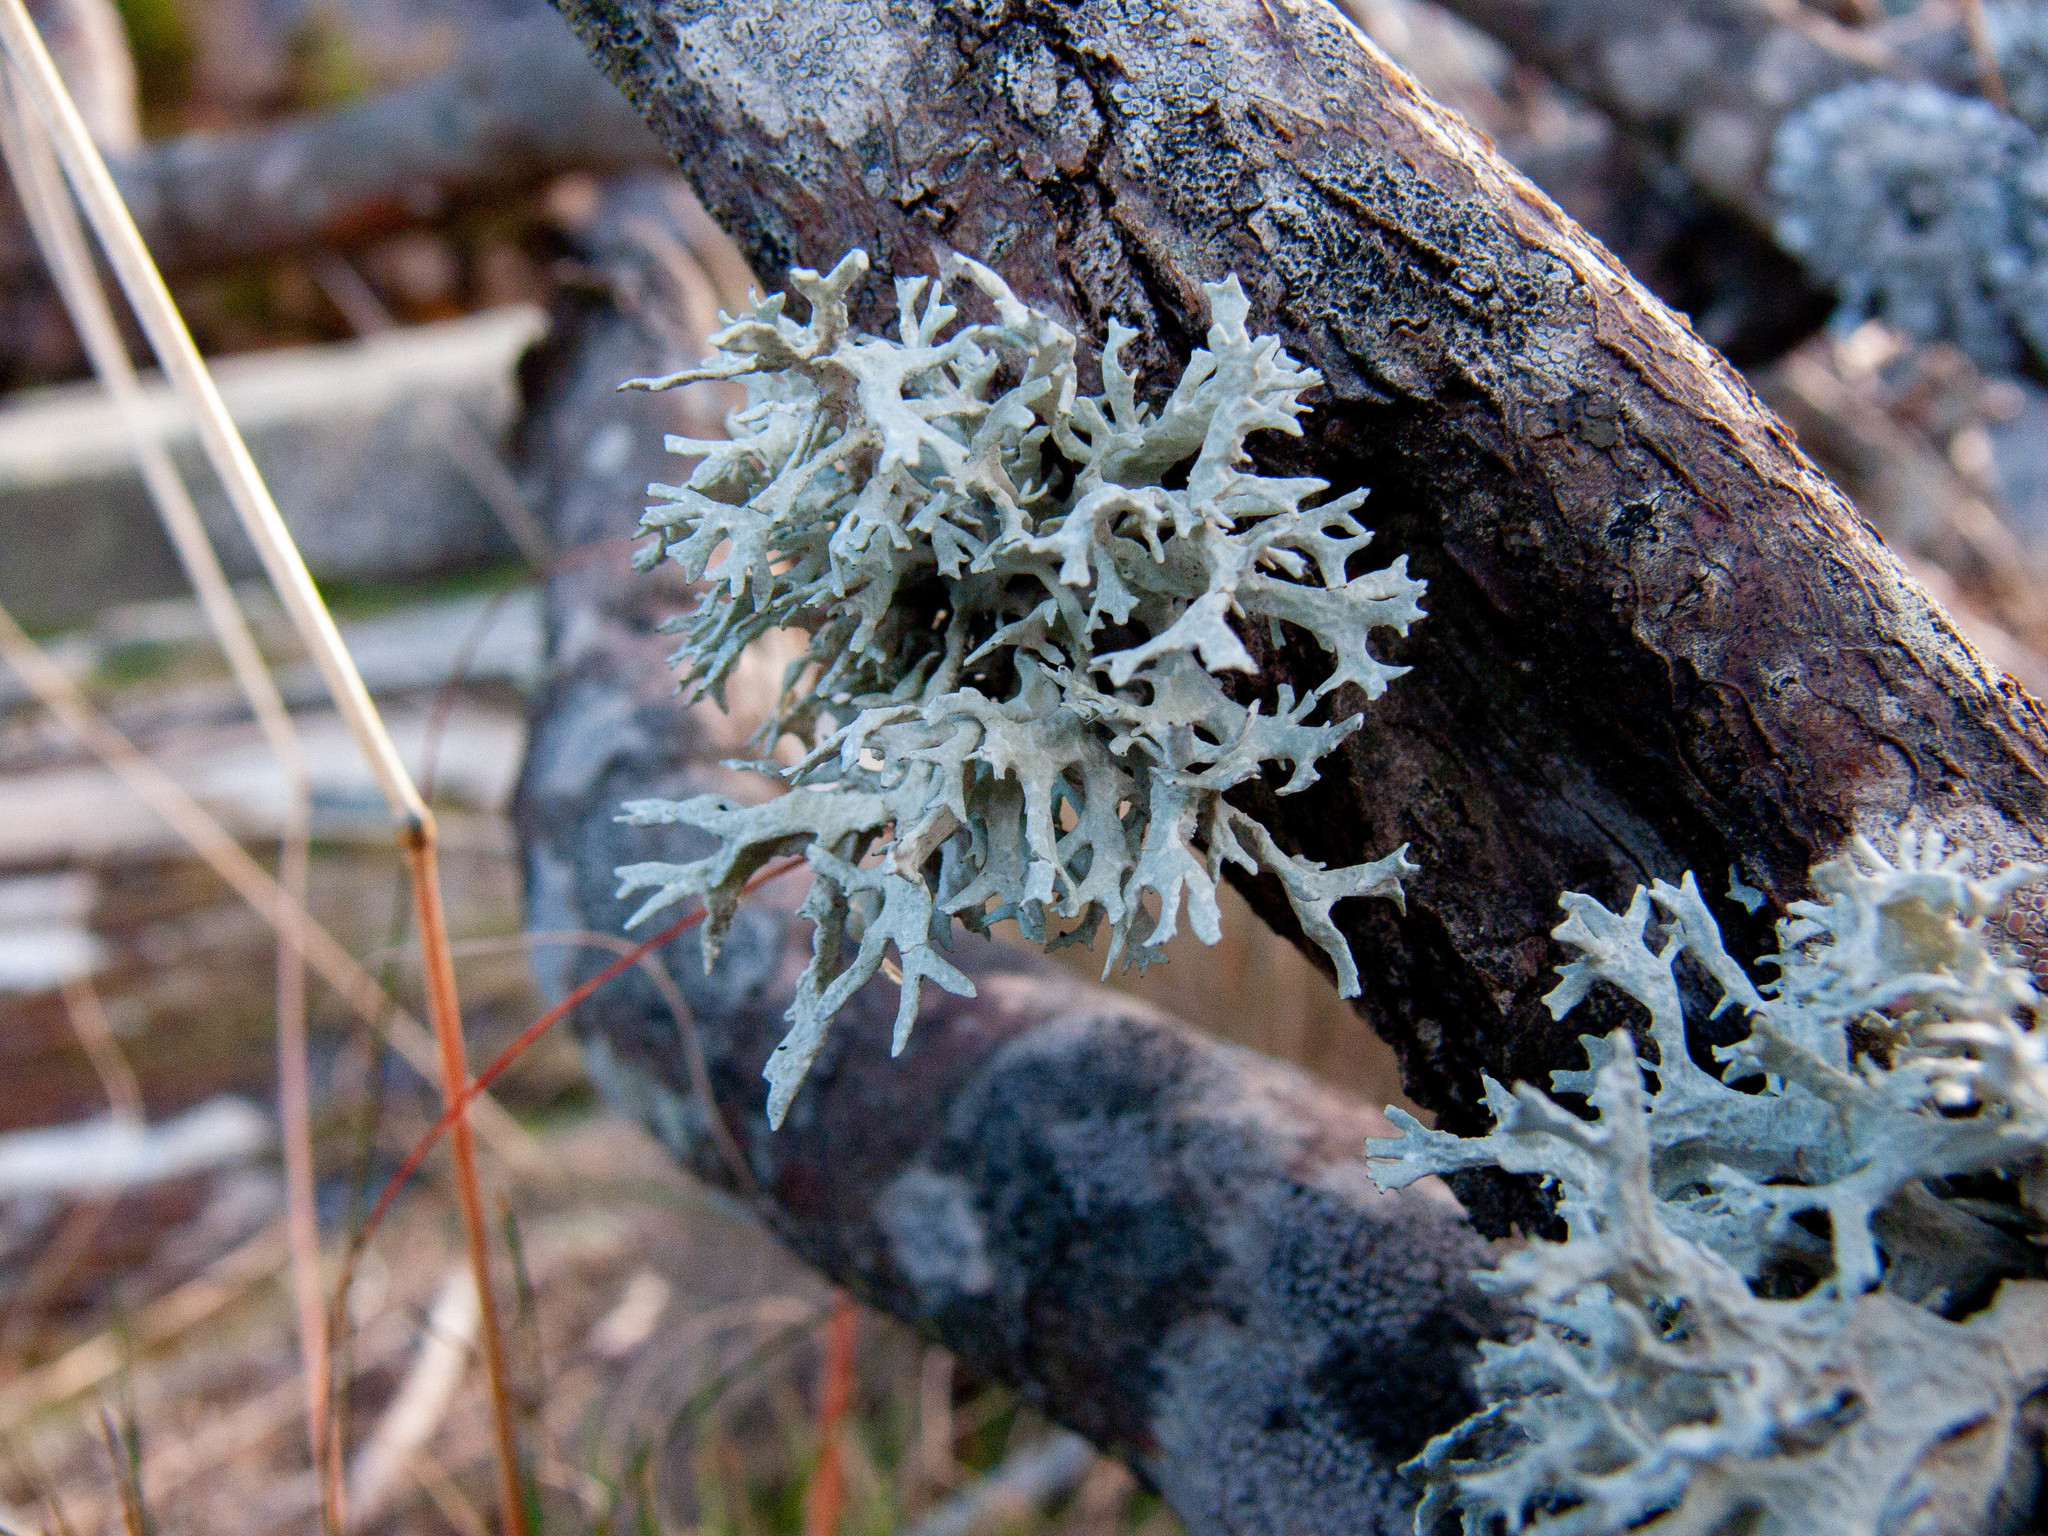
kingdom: Fungi
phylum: Ascomycota
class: Lecanoromycetes
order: Lecanorales
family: Parmeliaceae
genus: Evernia
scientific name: Evernia prunastri
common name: Oak moss
